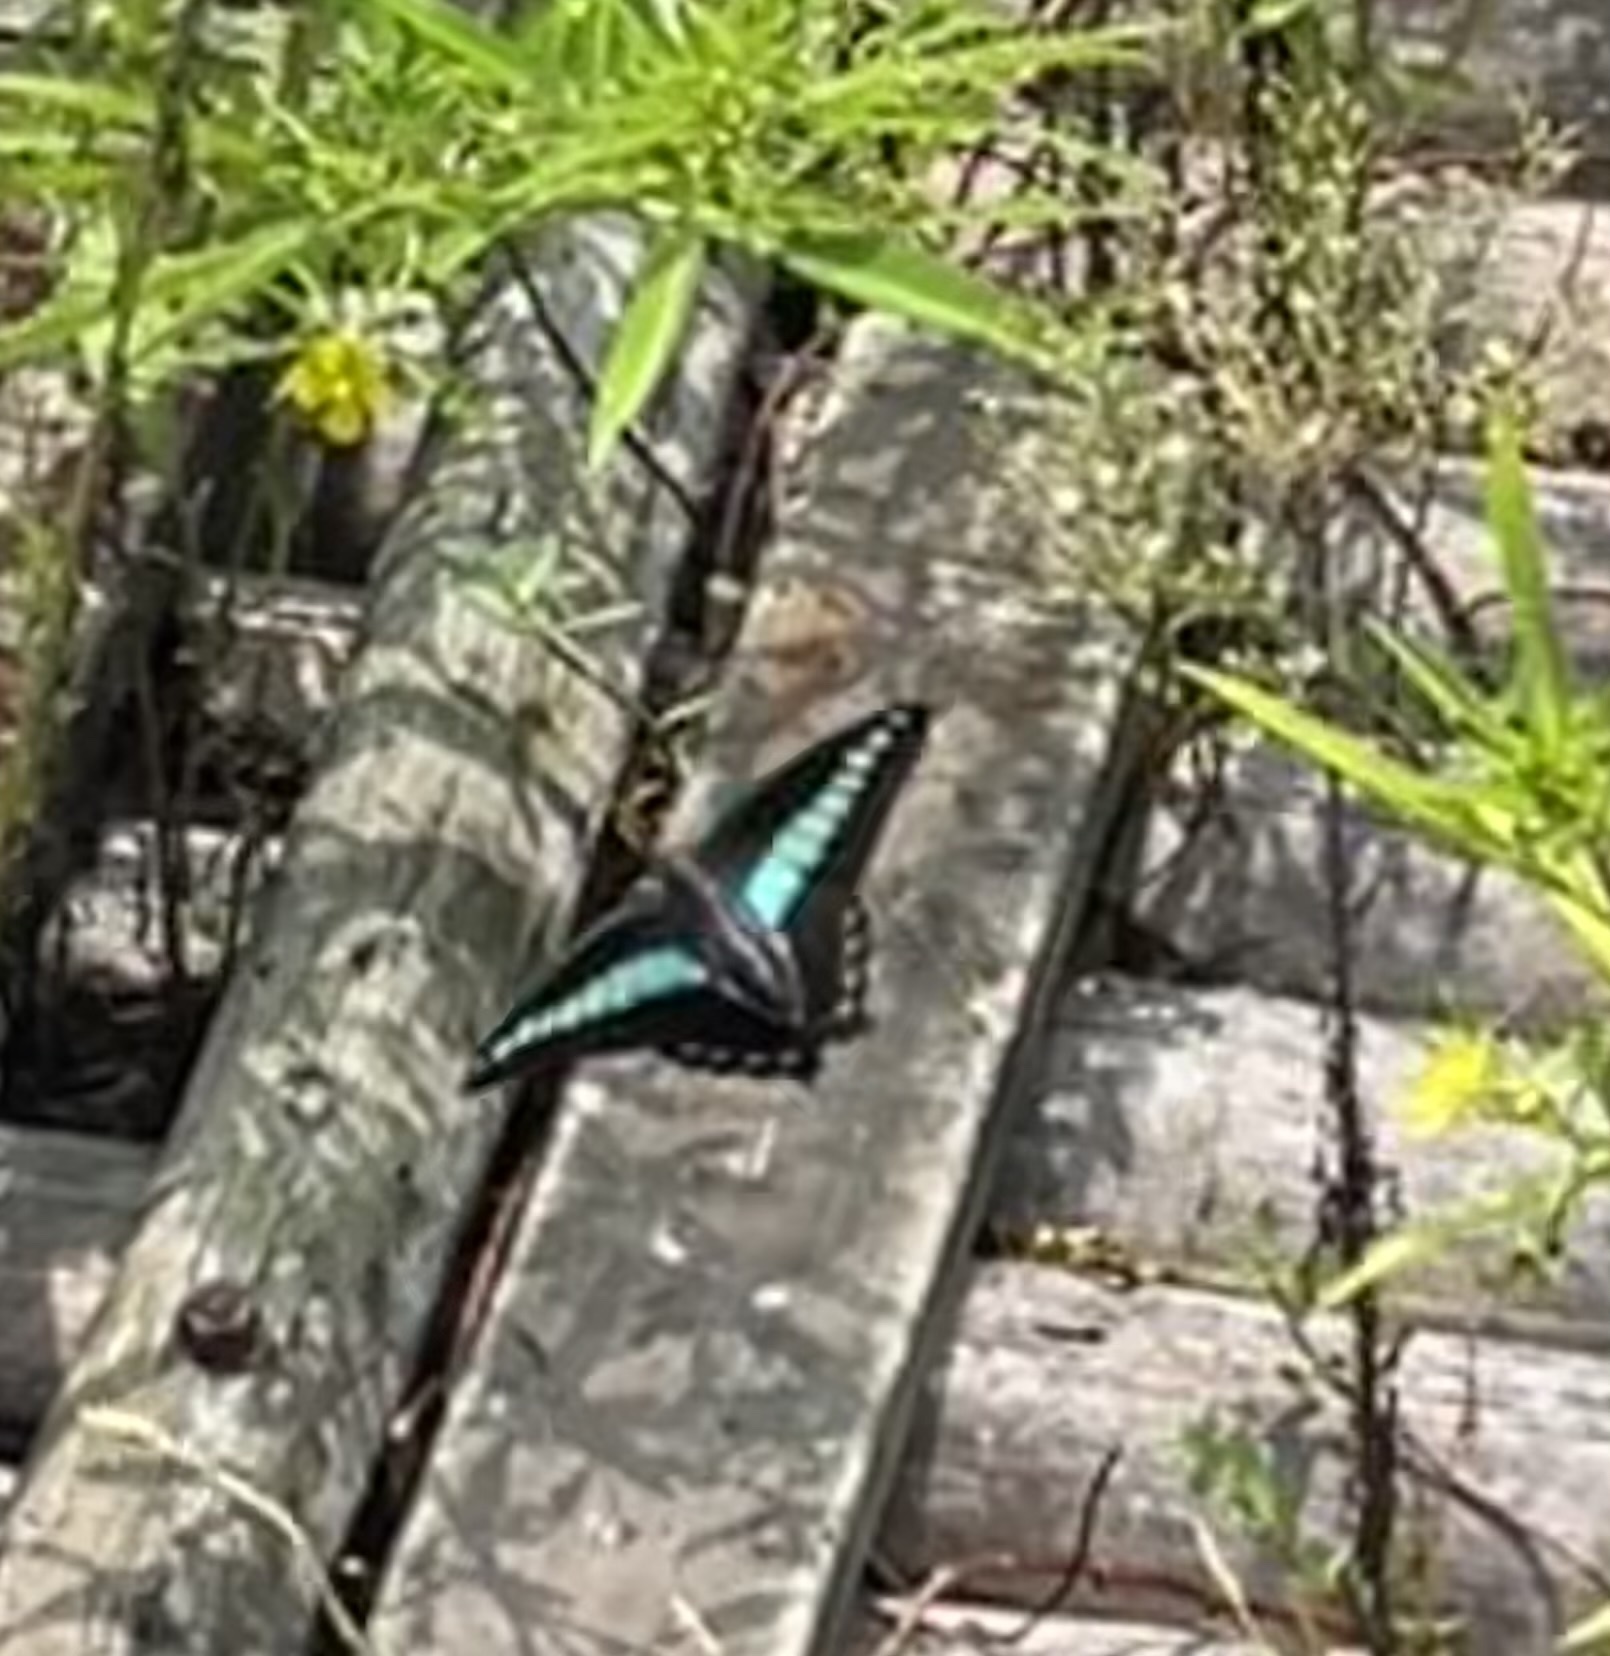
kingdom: Fungi
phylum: Ascomycota
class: Sordariomycetes
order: Microascales
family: Microascaceae
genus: Graphium
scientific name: Graphium sarpedon
